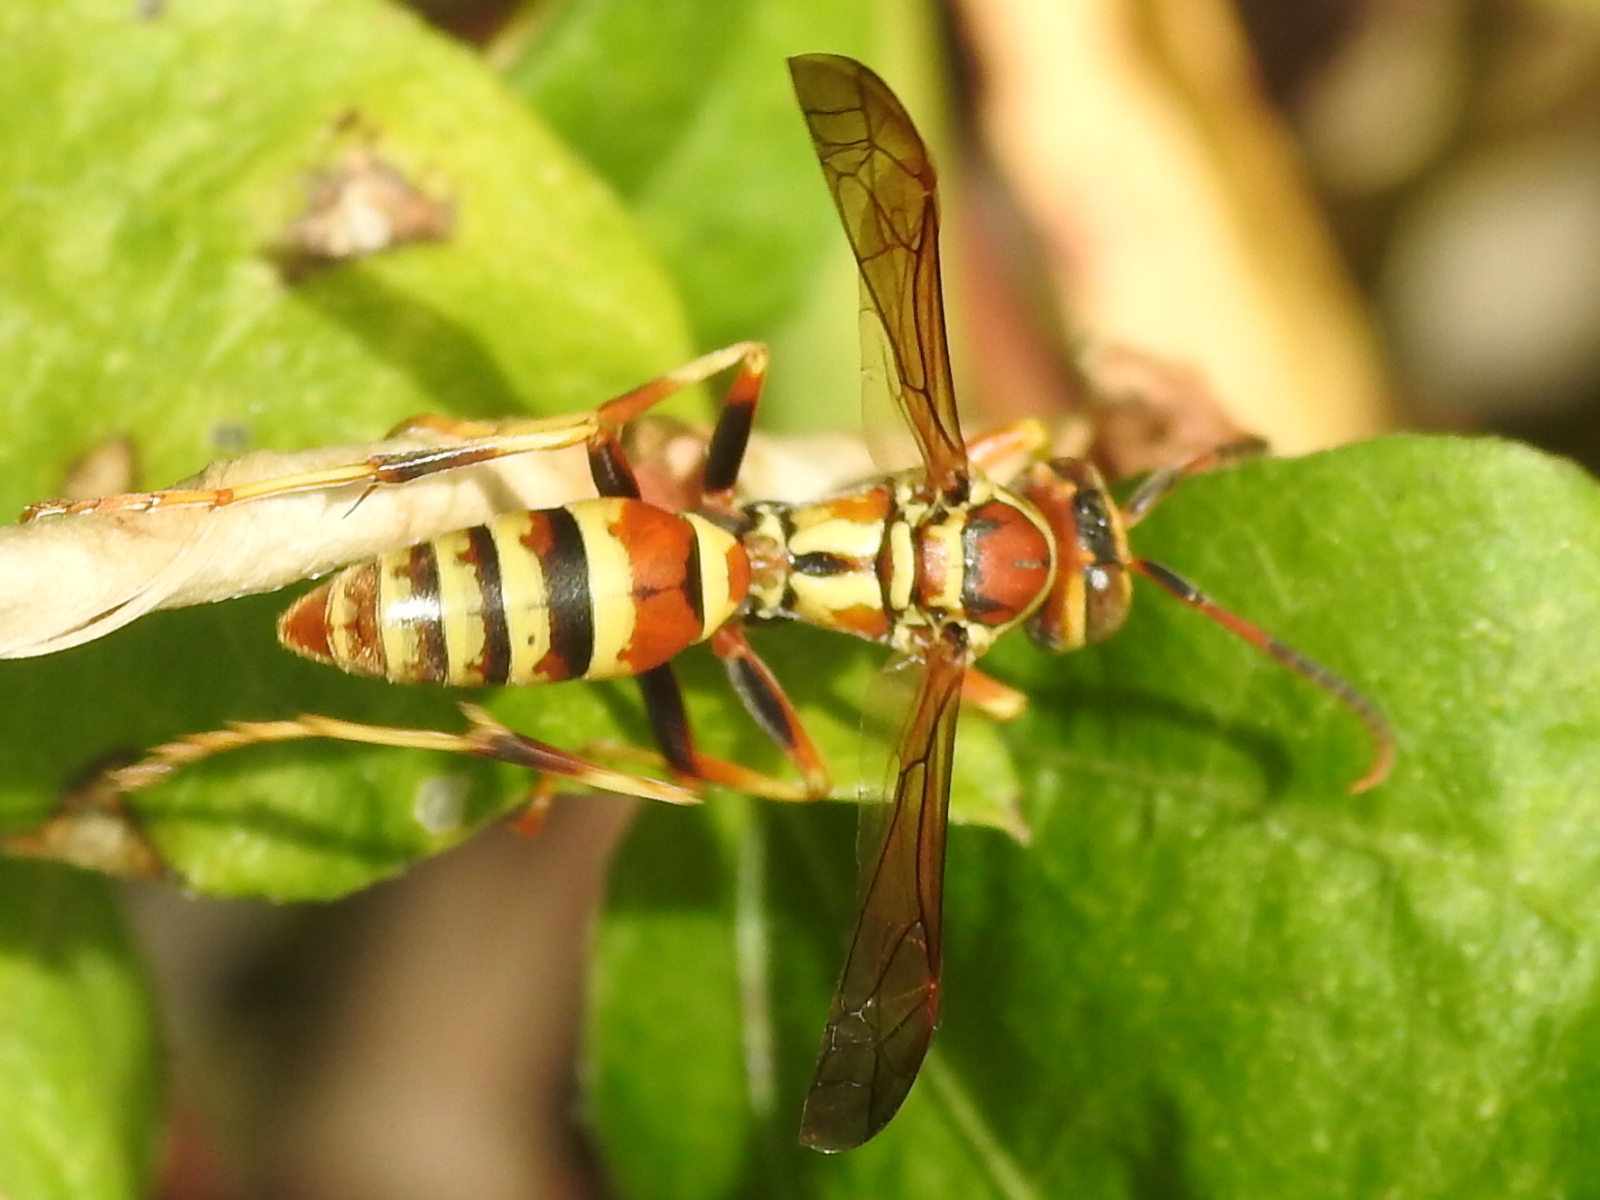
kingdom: Animalia
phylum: Arthropoda
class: Insecta
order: Hymenoptera
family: Eumenidae
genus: Polistes
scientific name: Polistes dorsalis
